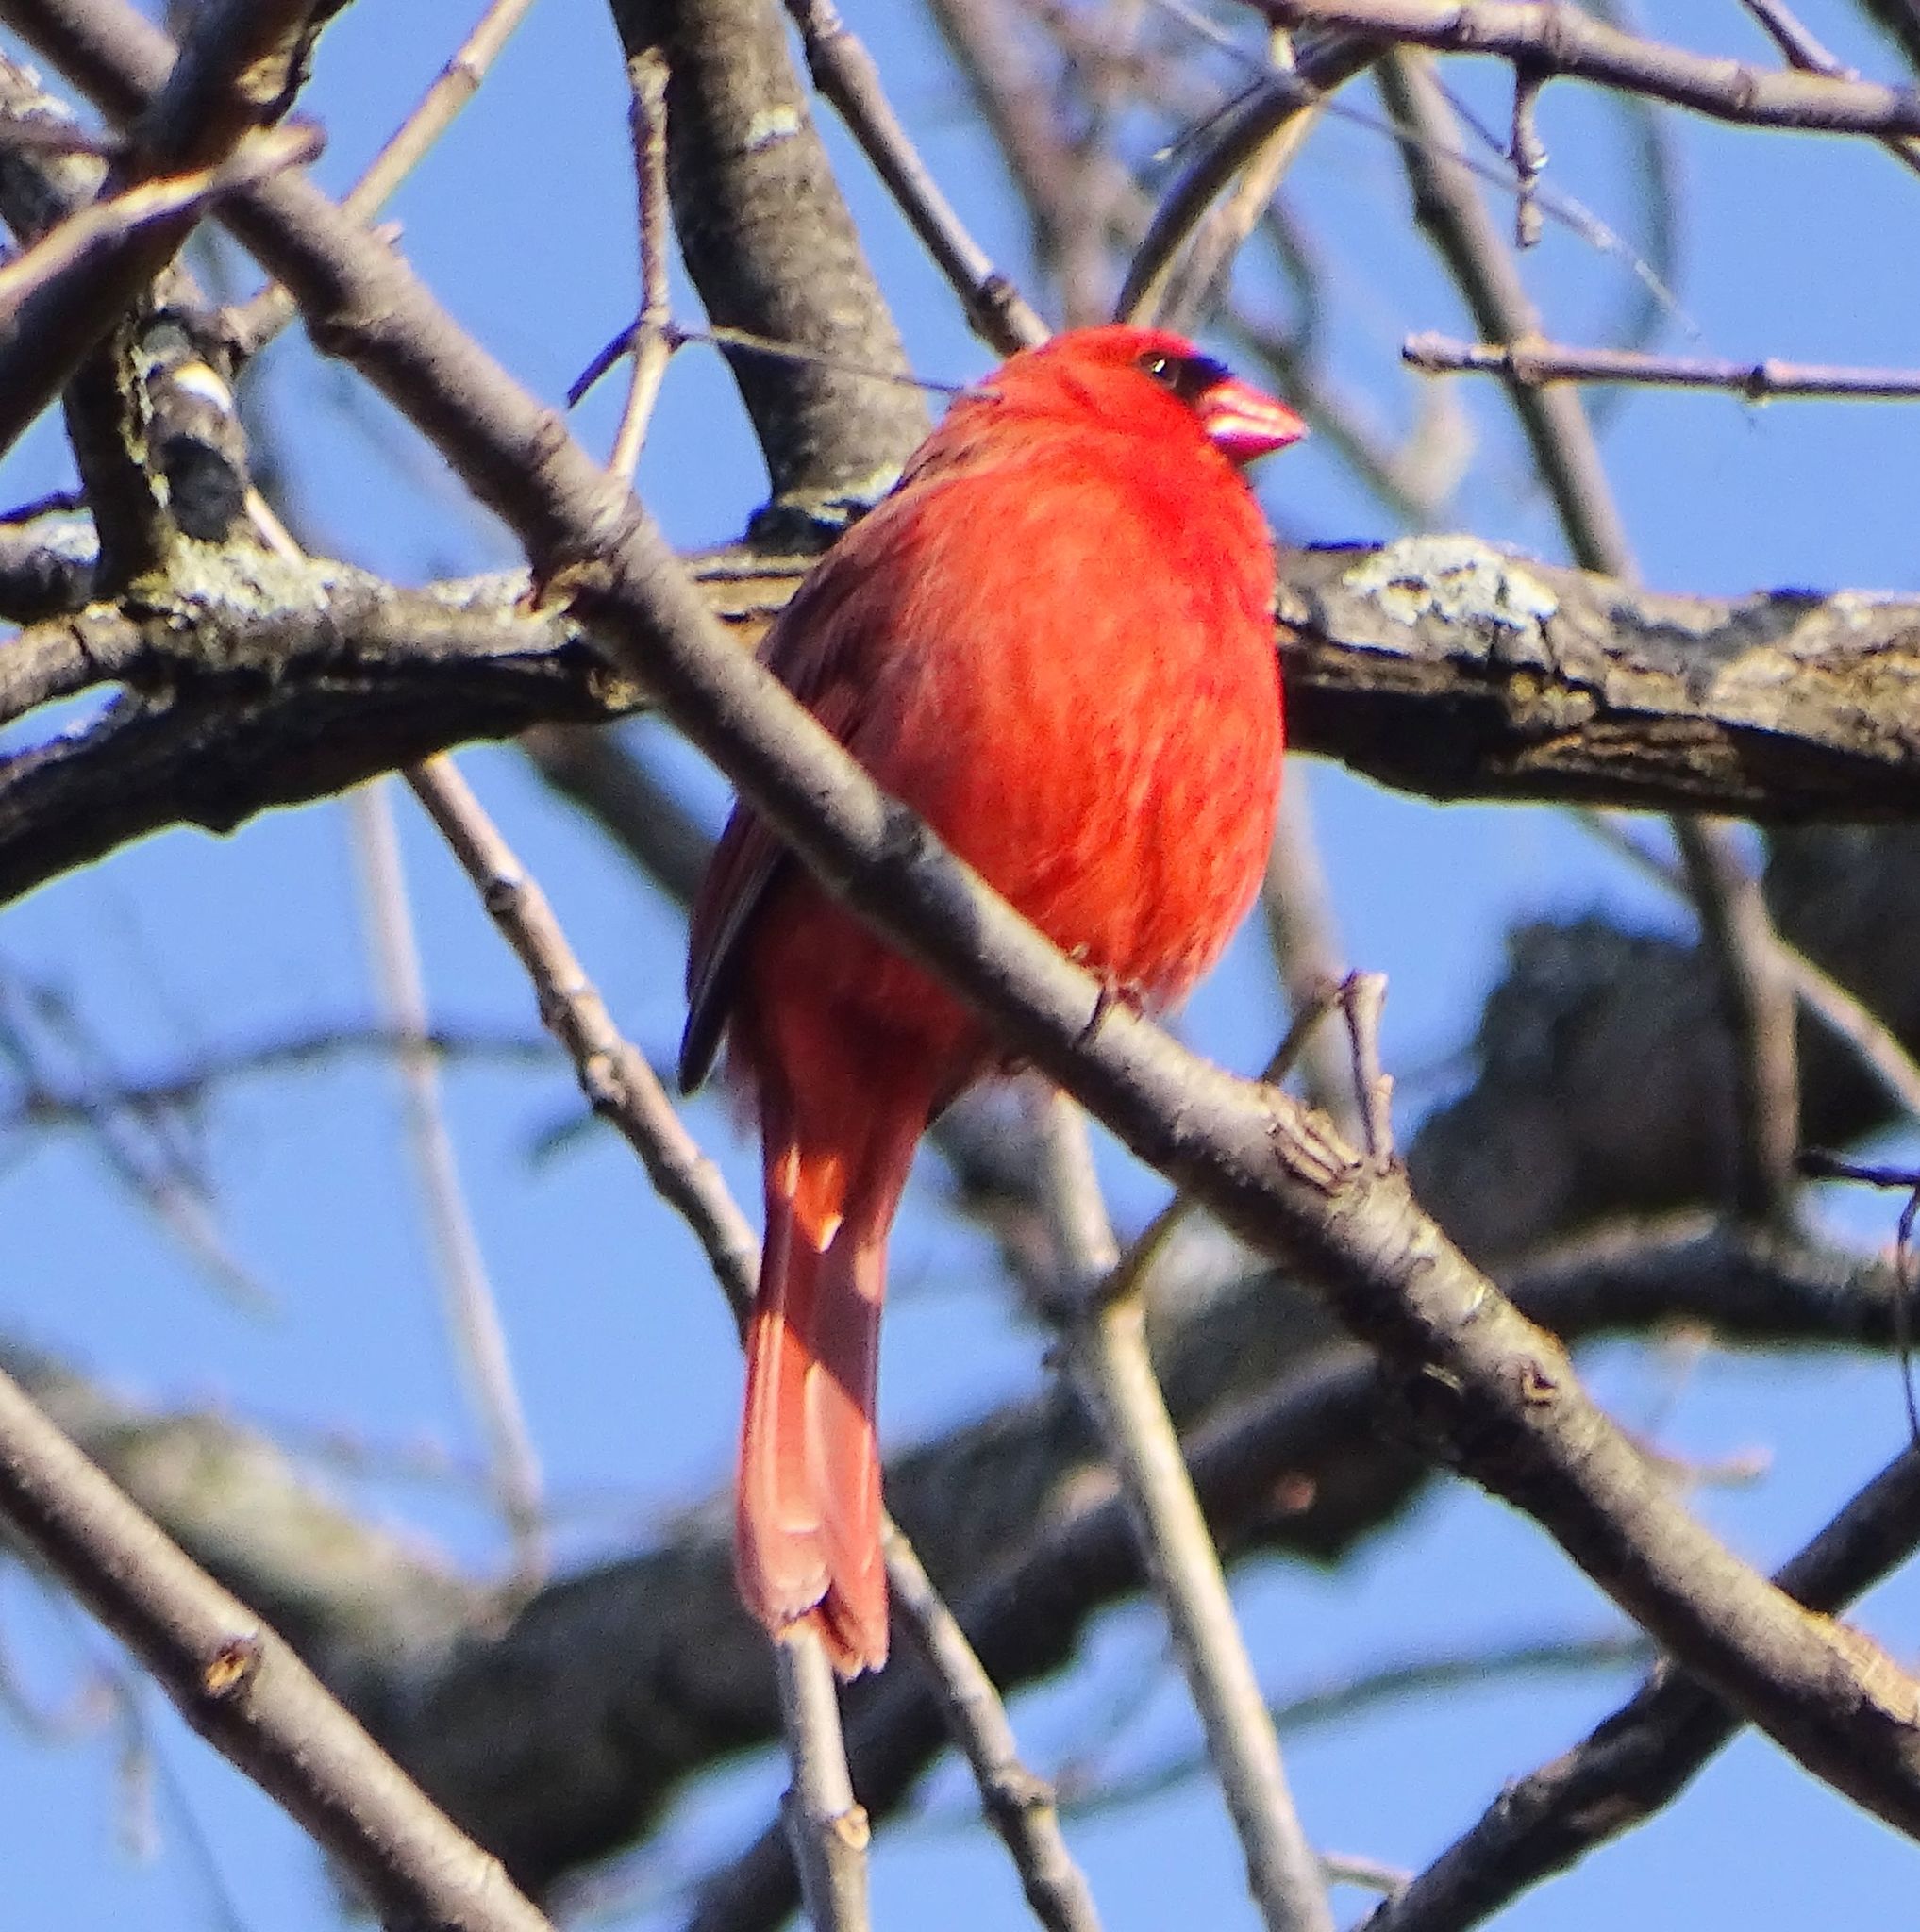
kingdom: Animalia
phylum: Chordata
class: Aves
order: Passeriformes
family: Cardinalidae
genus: Cardinalis
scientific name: Cardinalis cardinalis
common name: Northern cardinal
